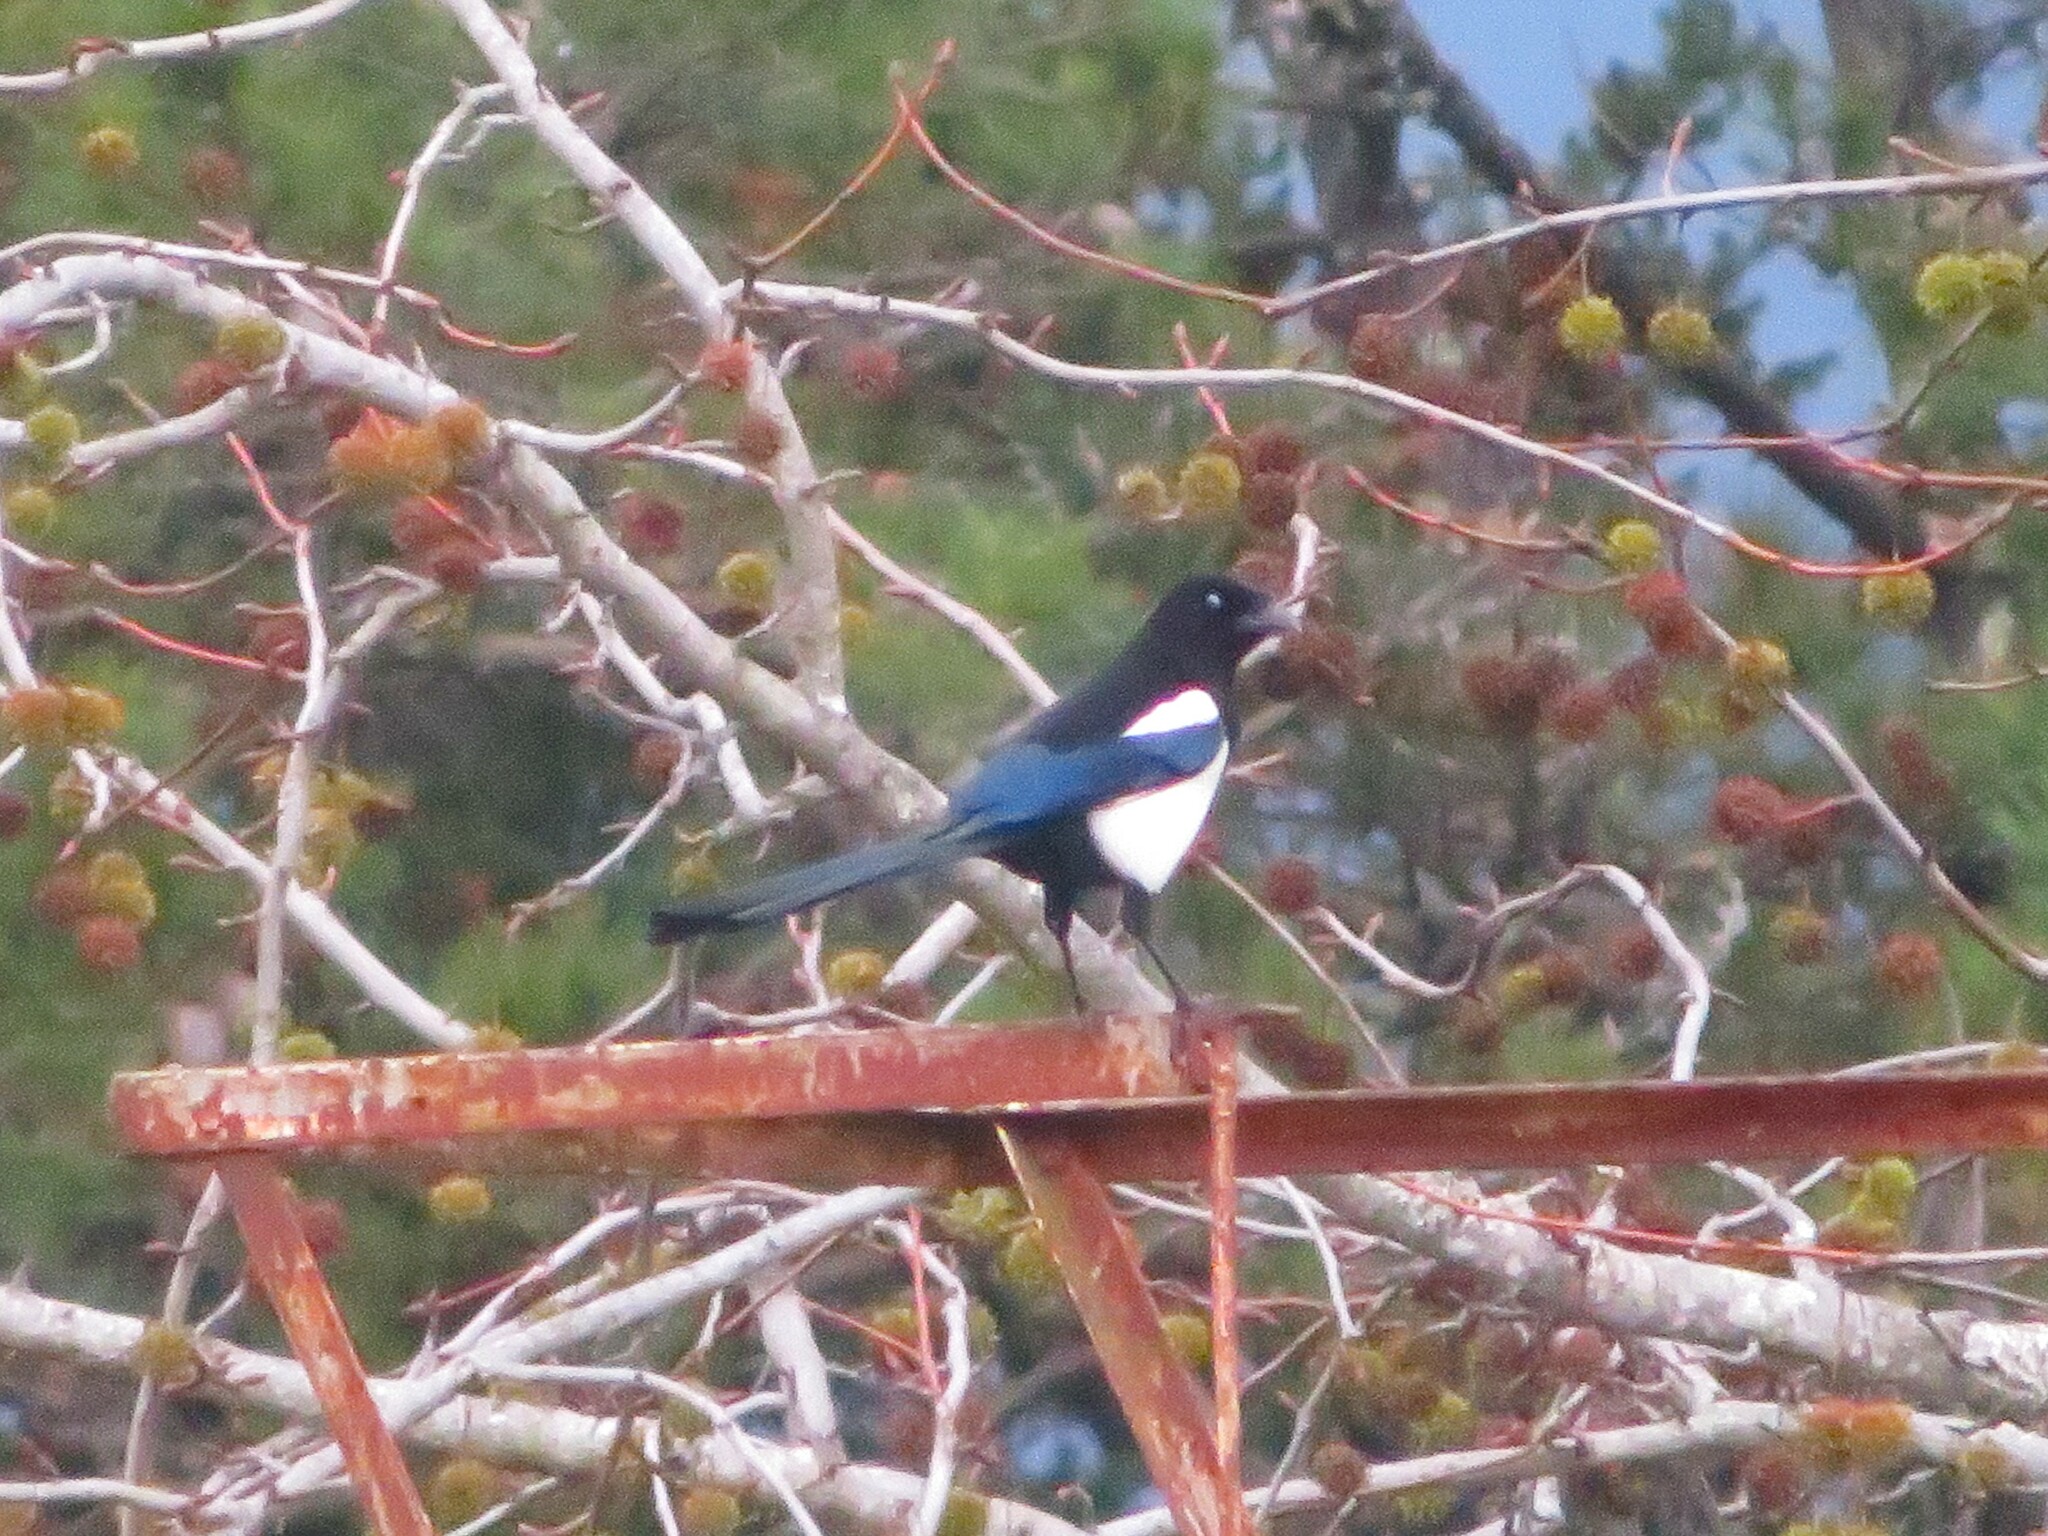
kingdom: Animalia
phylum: Chordata
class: Aves
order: Passeriformes
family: Corvidae
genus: Pica
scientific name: Pica pica
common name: Eurasian magpie
